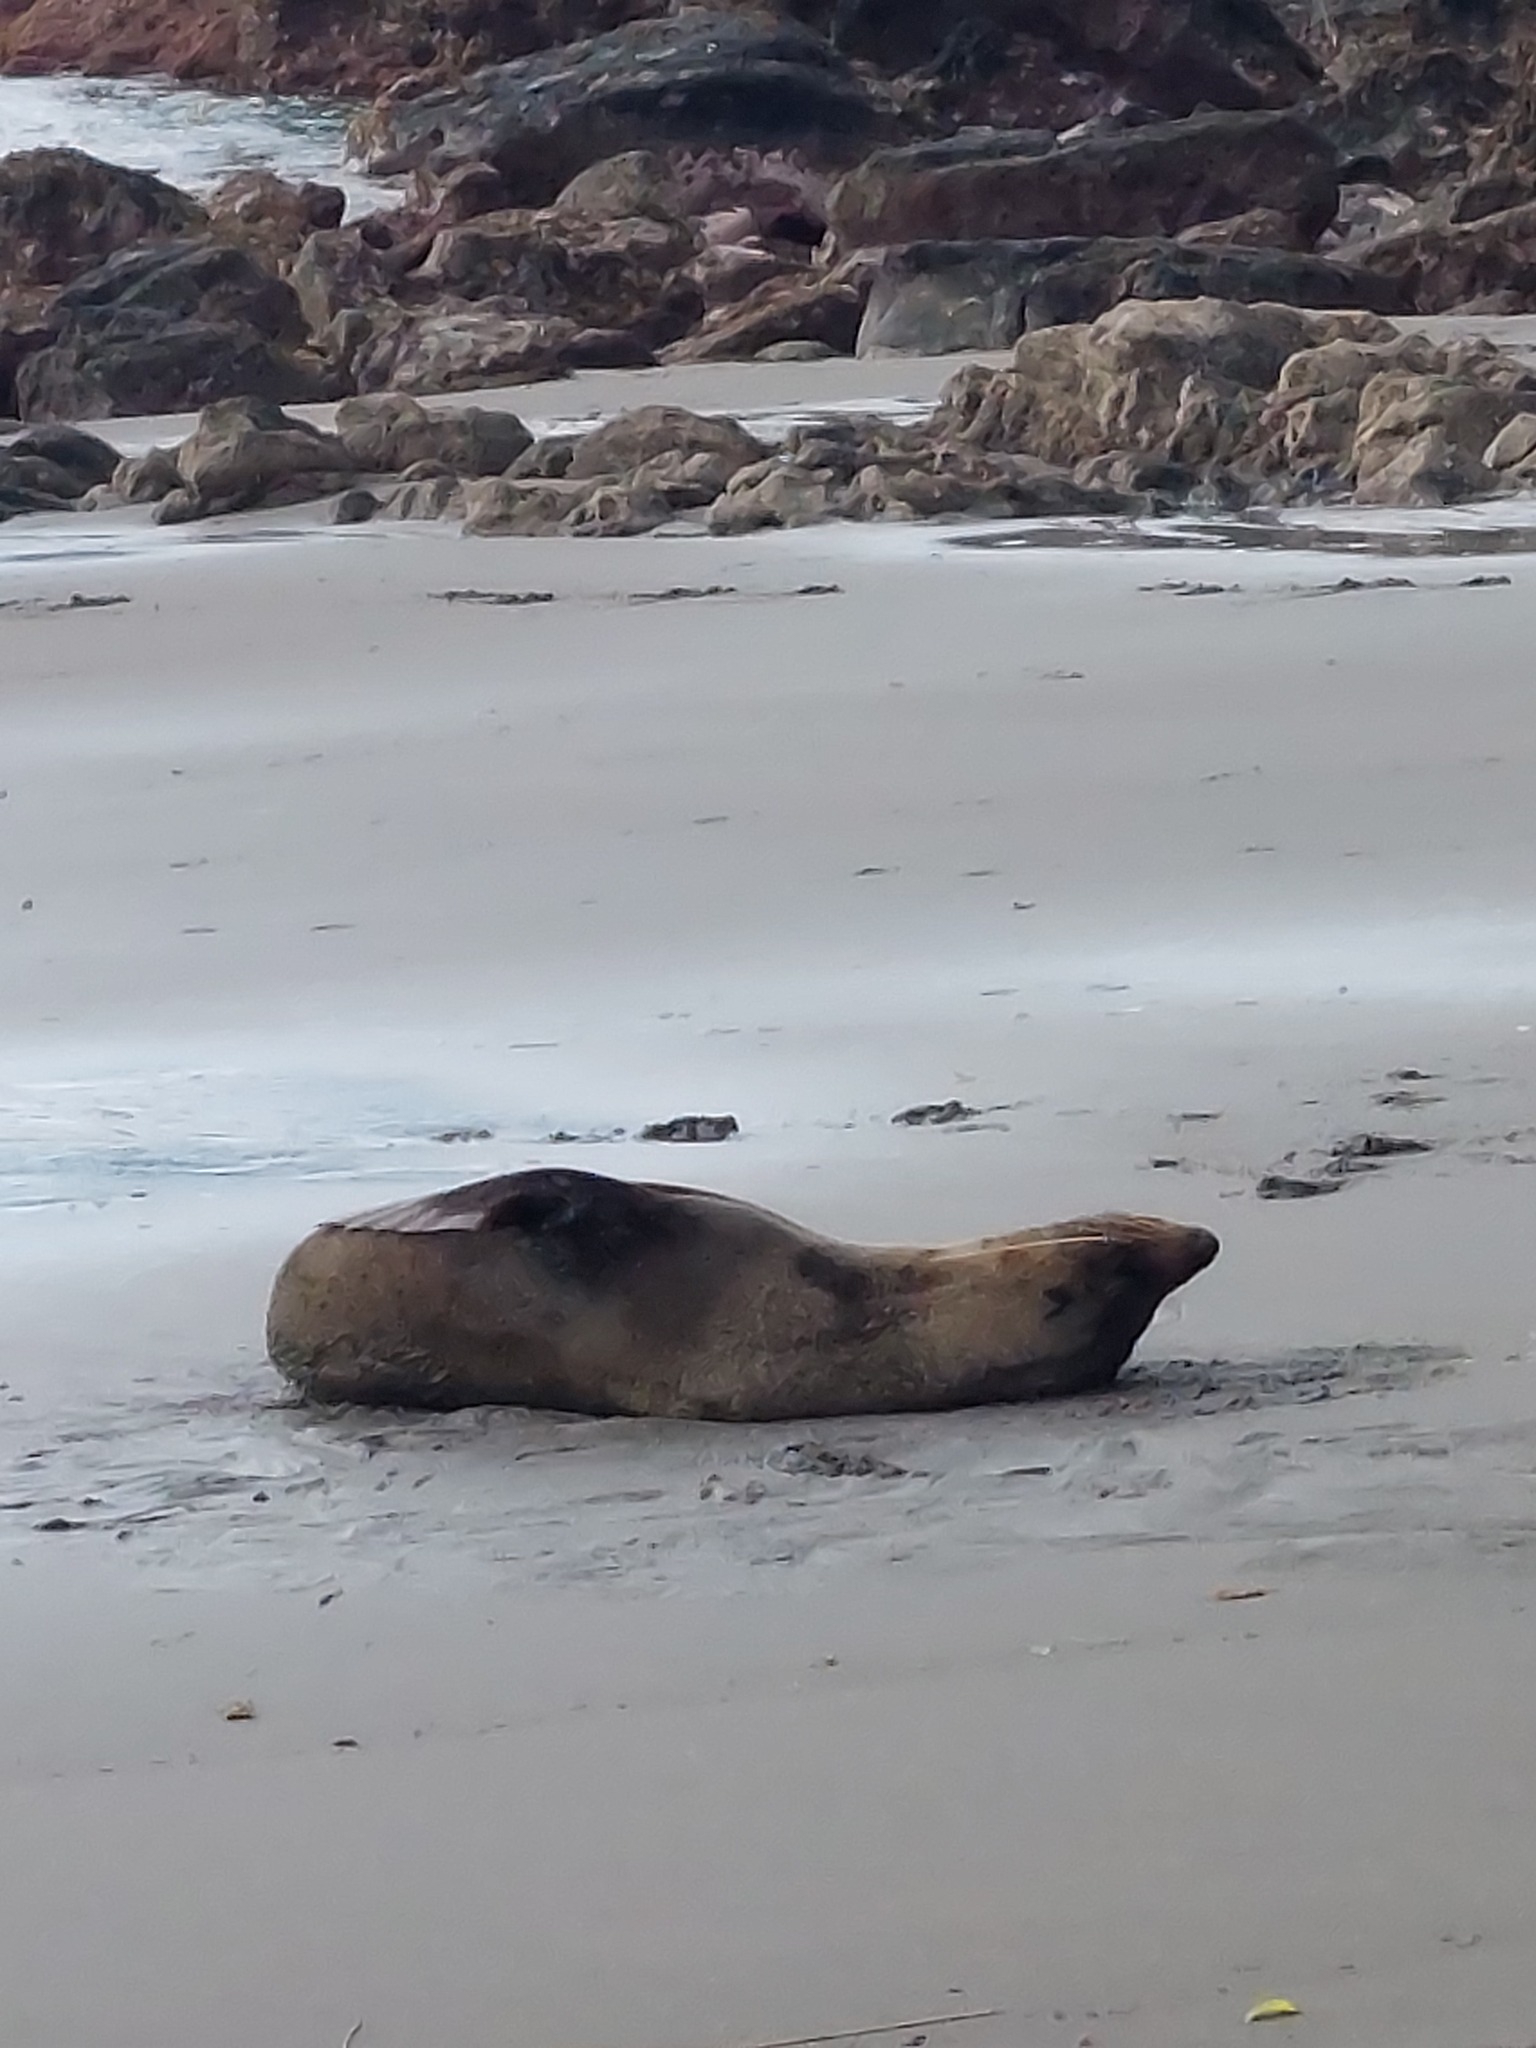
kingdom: Animalia
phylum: Chordata
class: Mammalia
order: Carnivora
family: Otariidae
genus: Arctocephalus
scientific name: Arctocephalus forsteri
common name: New zealand fur seal
